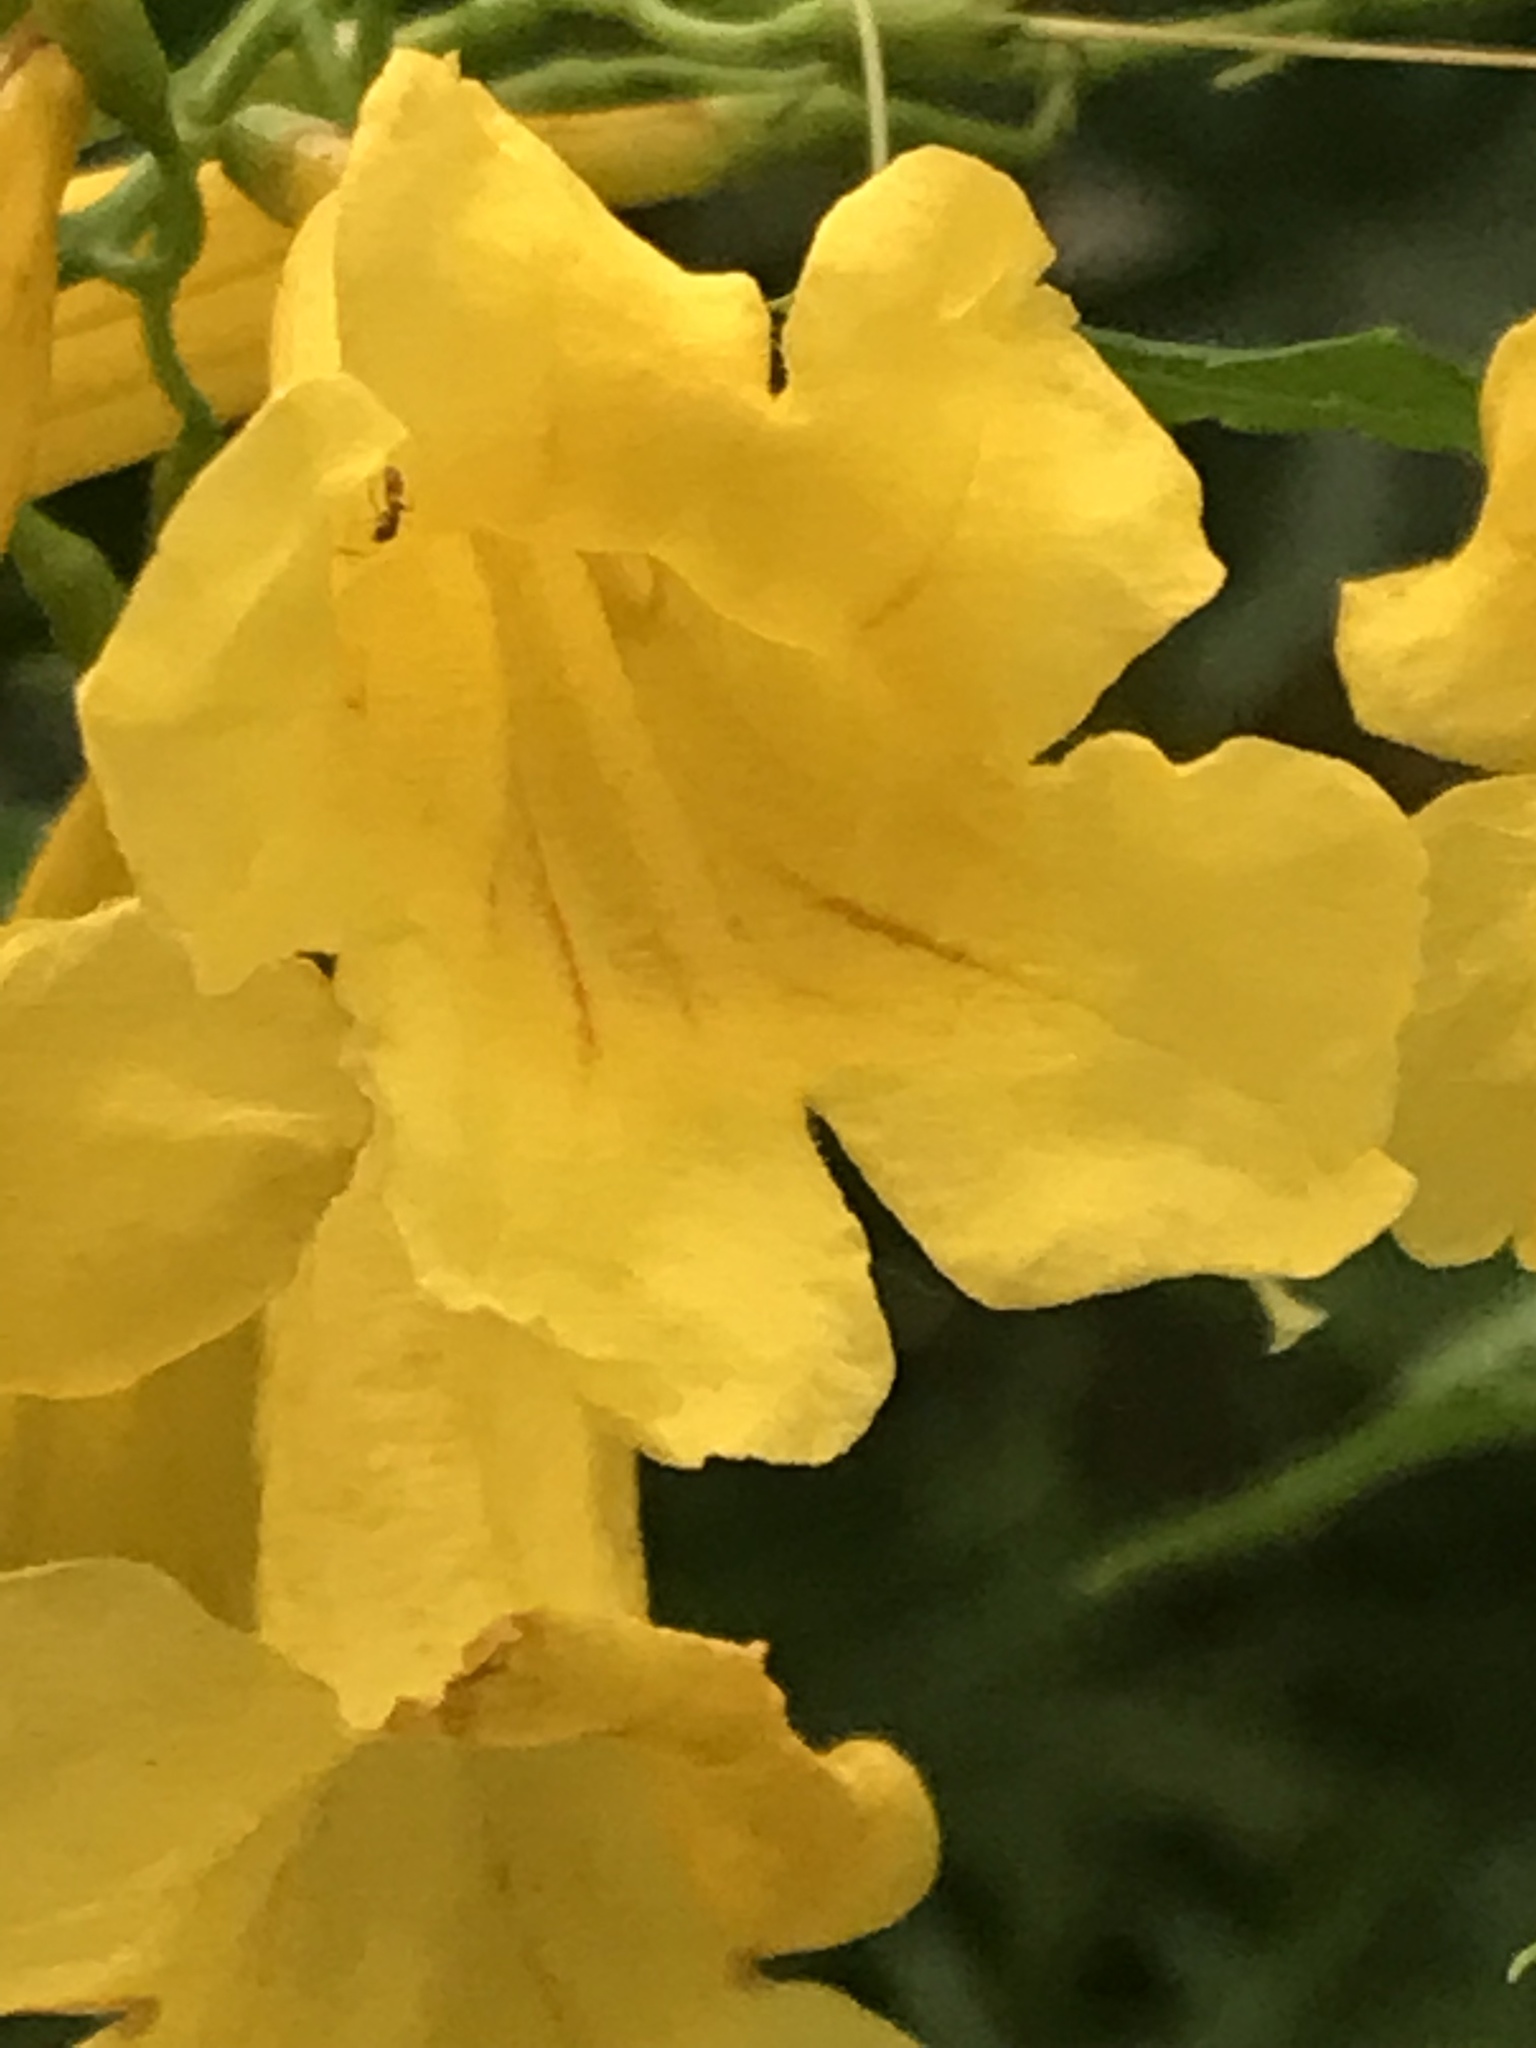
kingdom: Plantae
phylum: Tracheophyta
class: Magnoliopsida
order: Lamiales
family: Bignoniaceae
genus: Tecoma
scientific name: Tecoma stans
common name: Yellow trumpetbush
